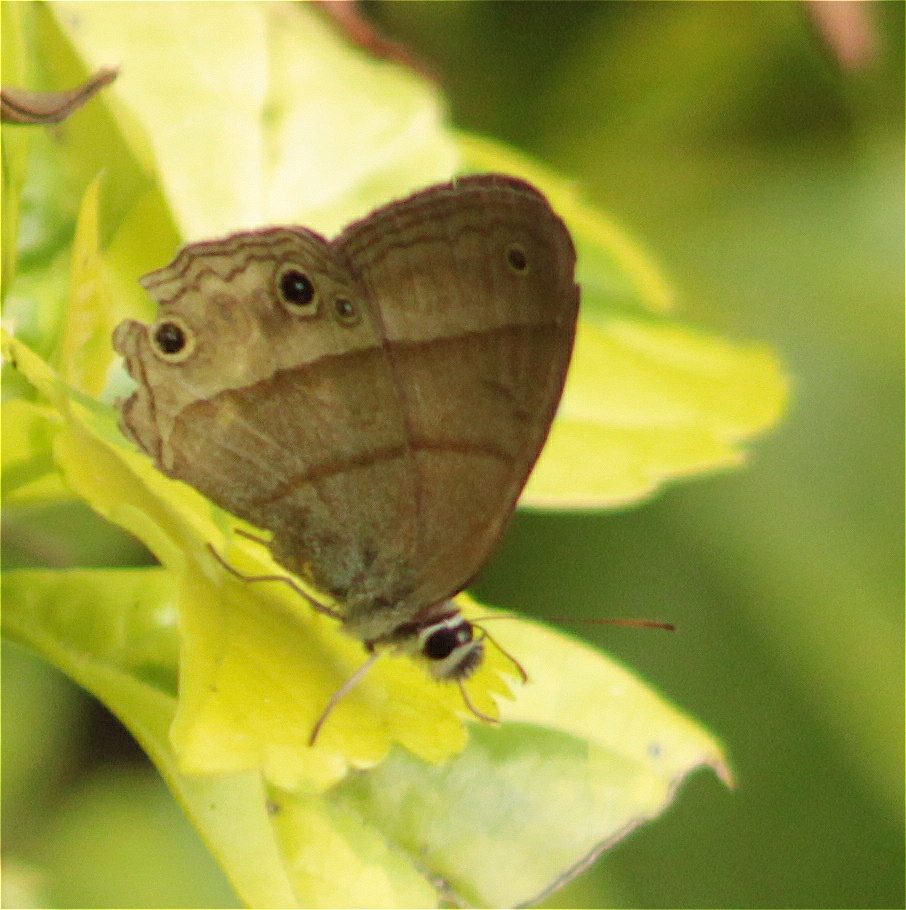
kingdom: Animalia
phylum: Arthropoda
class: Insecta
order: Lepidoptera
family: Nymphalidae
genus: Euptychia
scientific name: Euptychia Cissia pompilia
